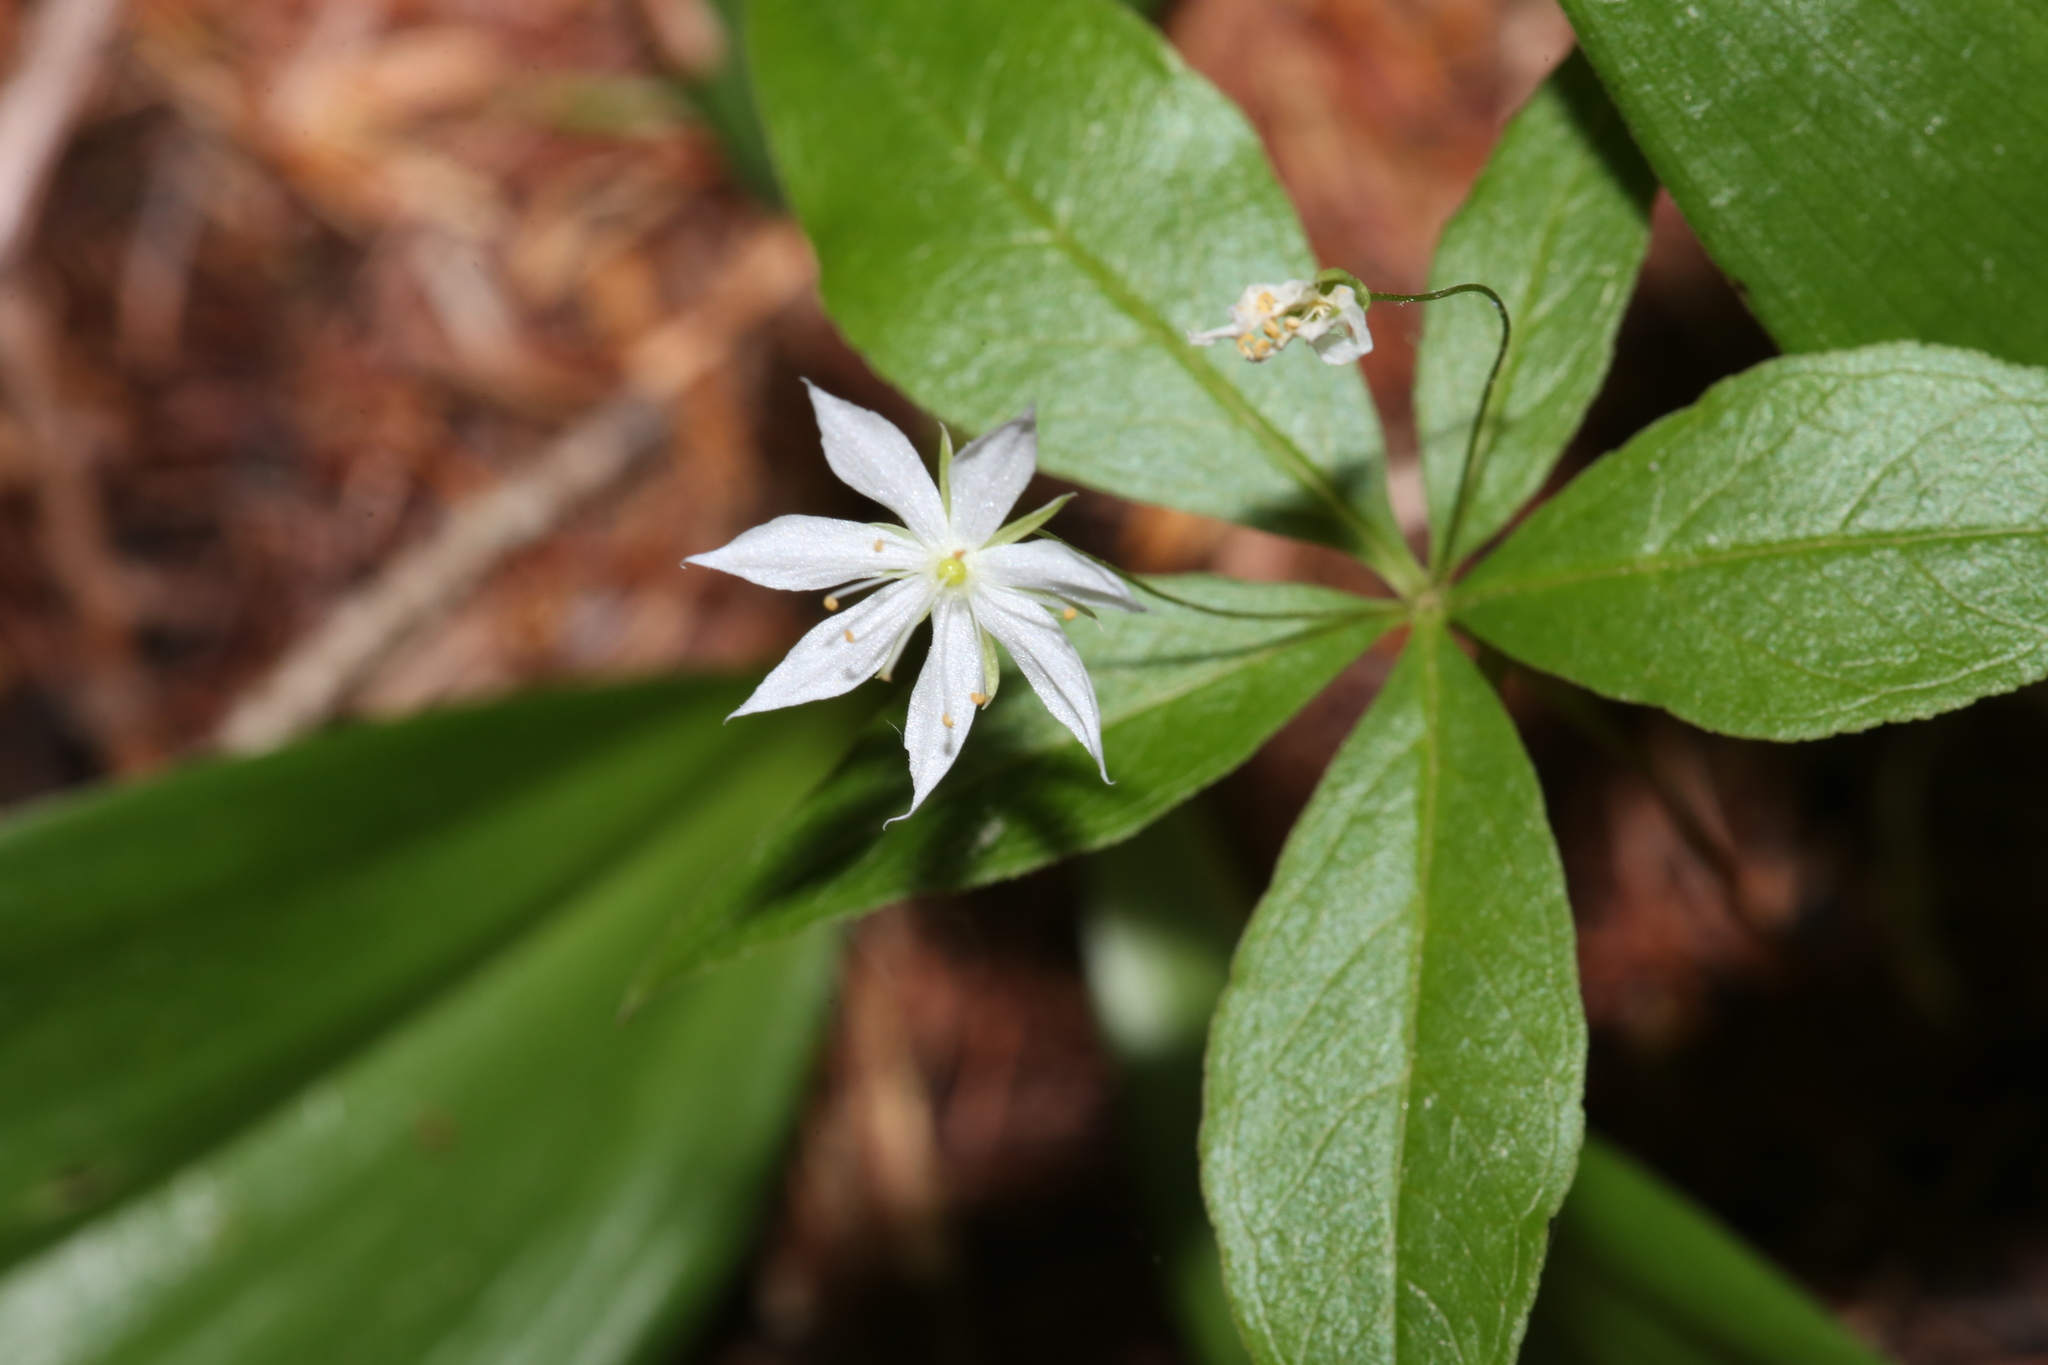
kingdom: Plantae
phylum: Tracheophyta
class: Magnoliopsida
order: Ericales
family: Primulaceae
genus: Lysimachia
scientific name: Lysimachia borealis
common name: American starflower
